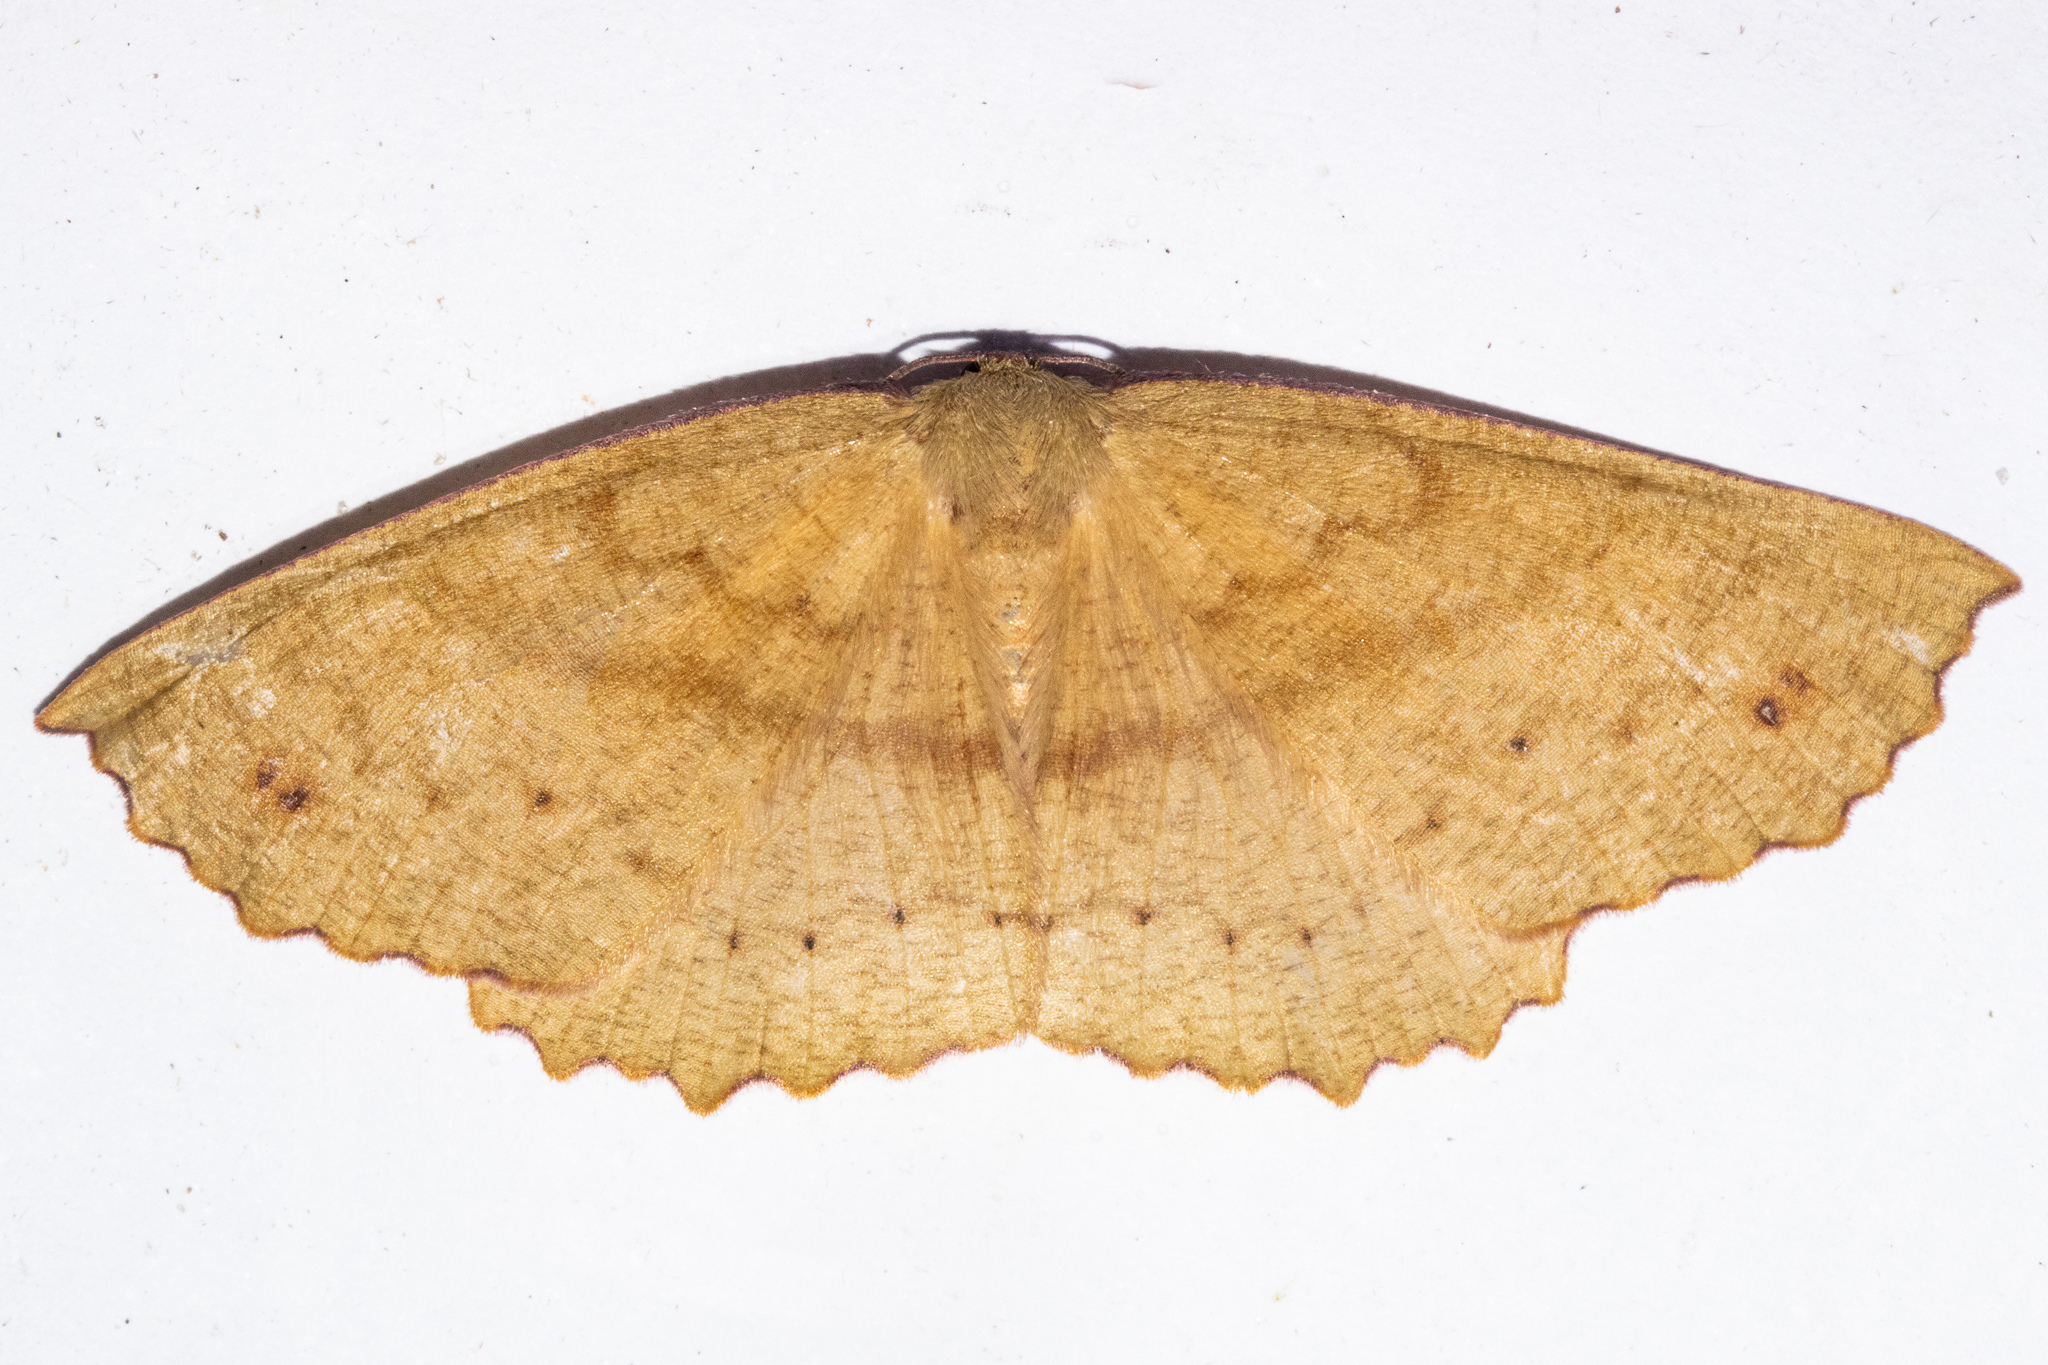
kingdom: Animalia
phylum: Arthropoda
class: Insecta
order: Lepidoptera
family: Geometridae
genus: Xyridacma
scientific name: Xyridacma ustaria
